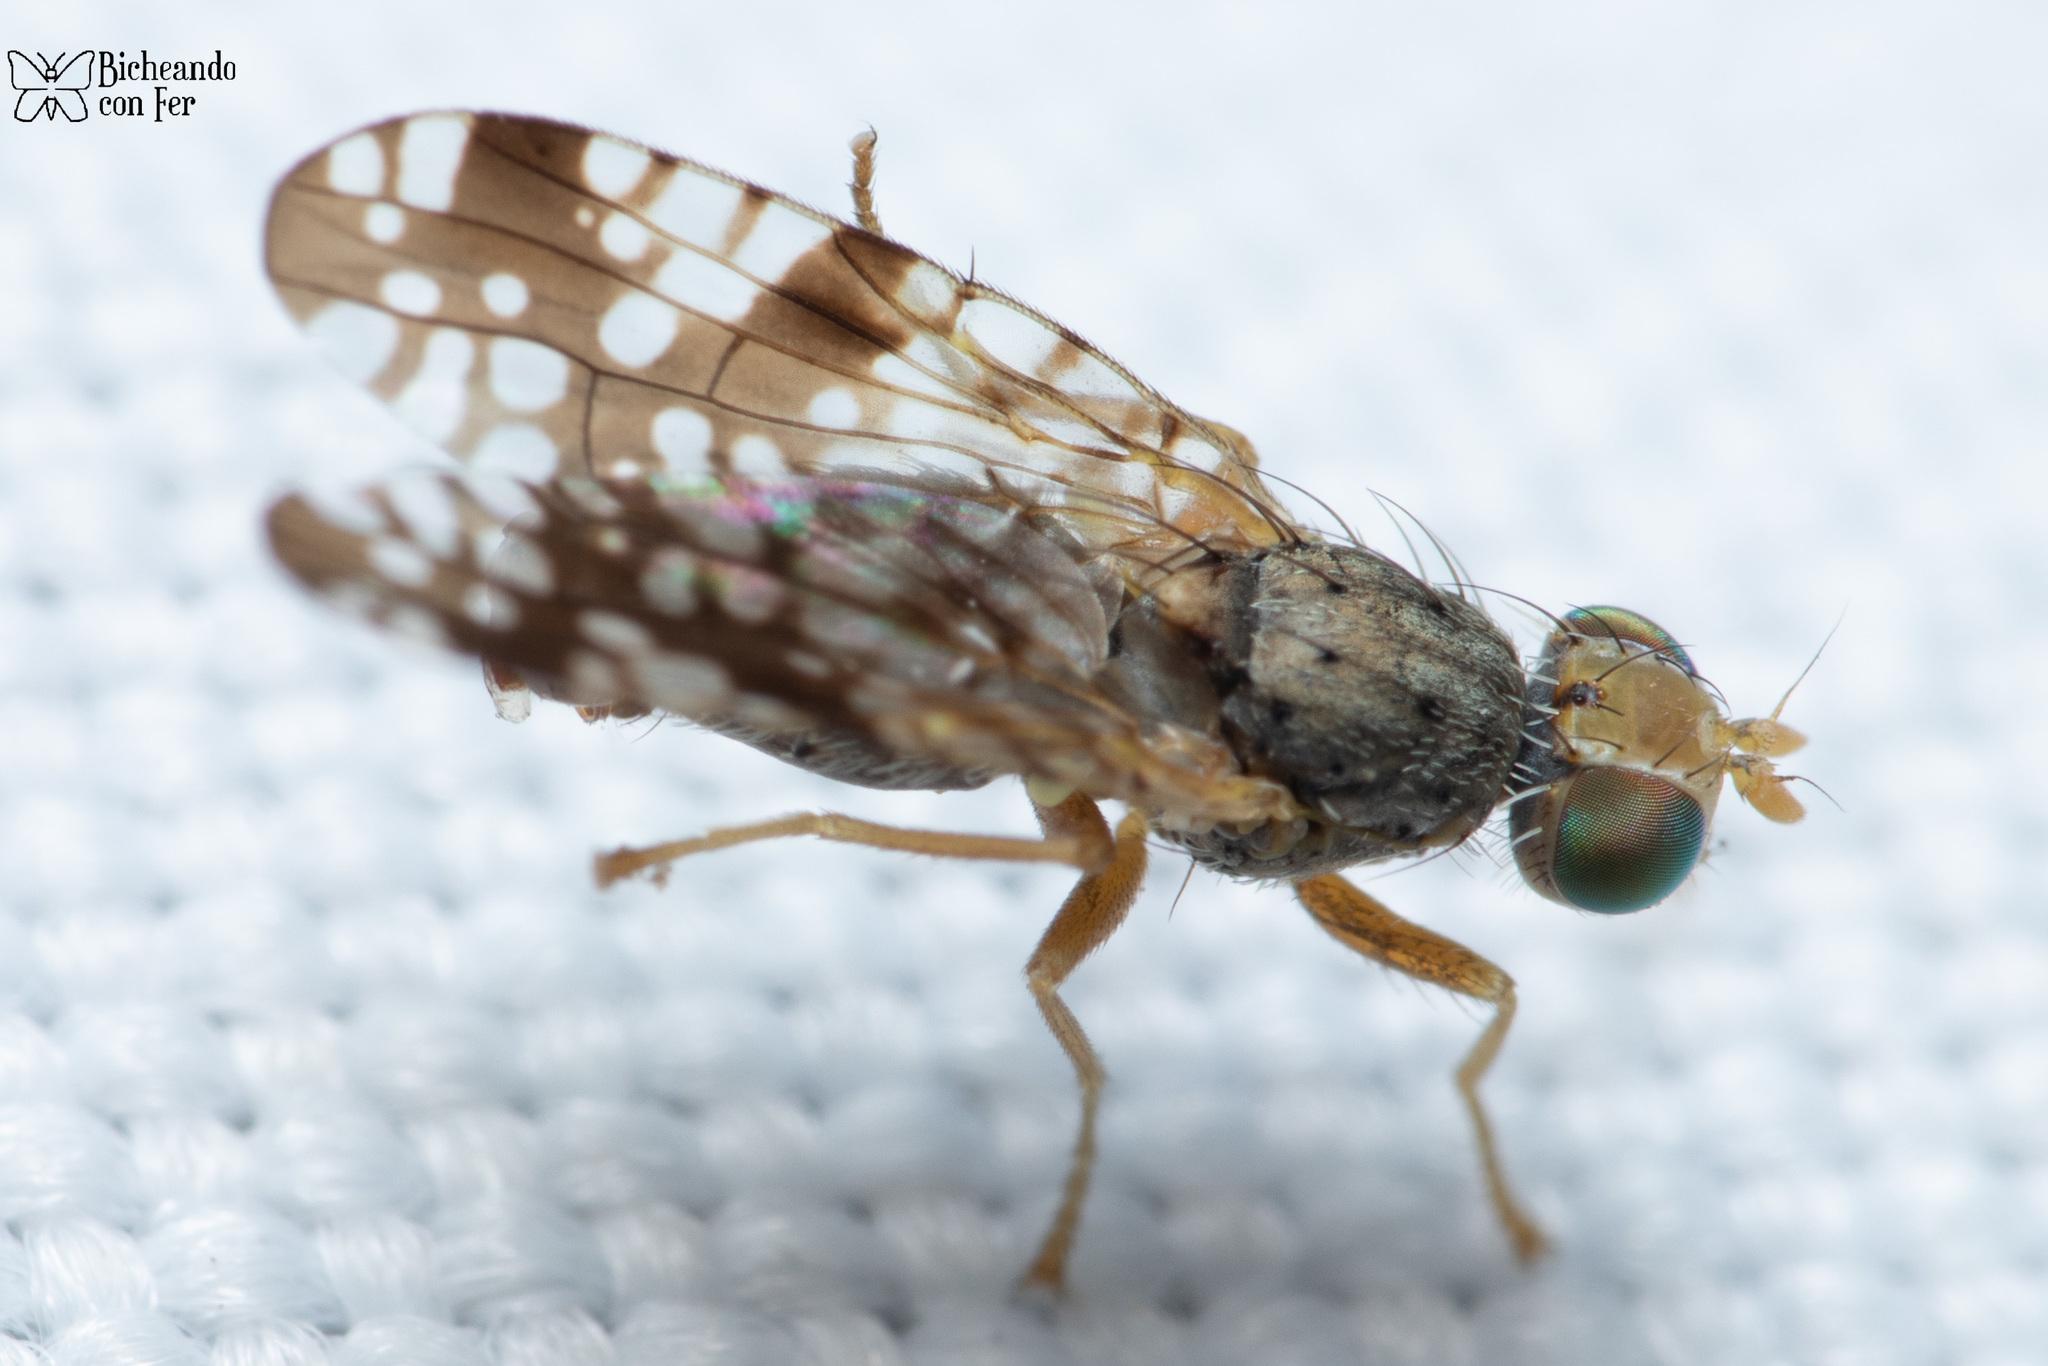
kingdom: Animalia
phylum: Arthropoda
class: Insecta
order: Diptera
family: Tephritidae
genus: Neotephritis
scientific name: Neotephritis finalis
